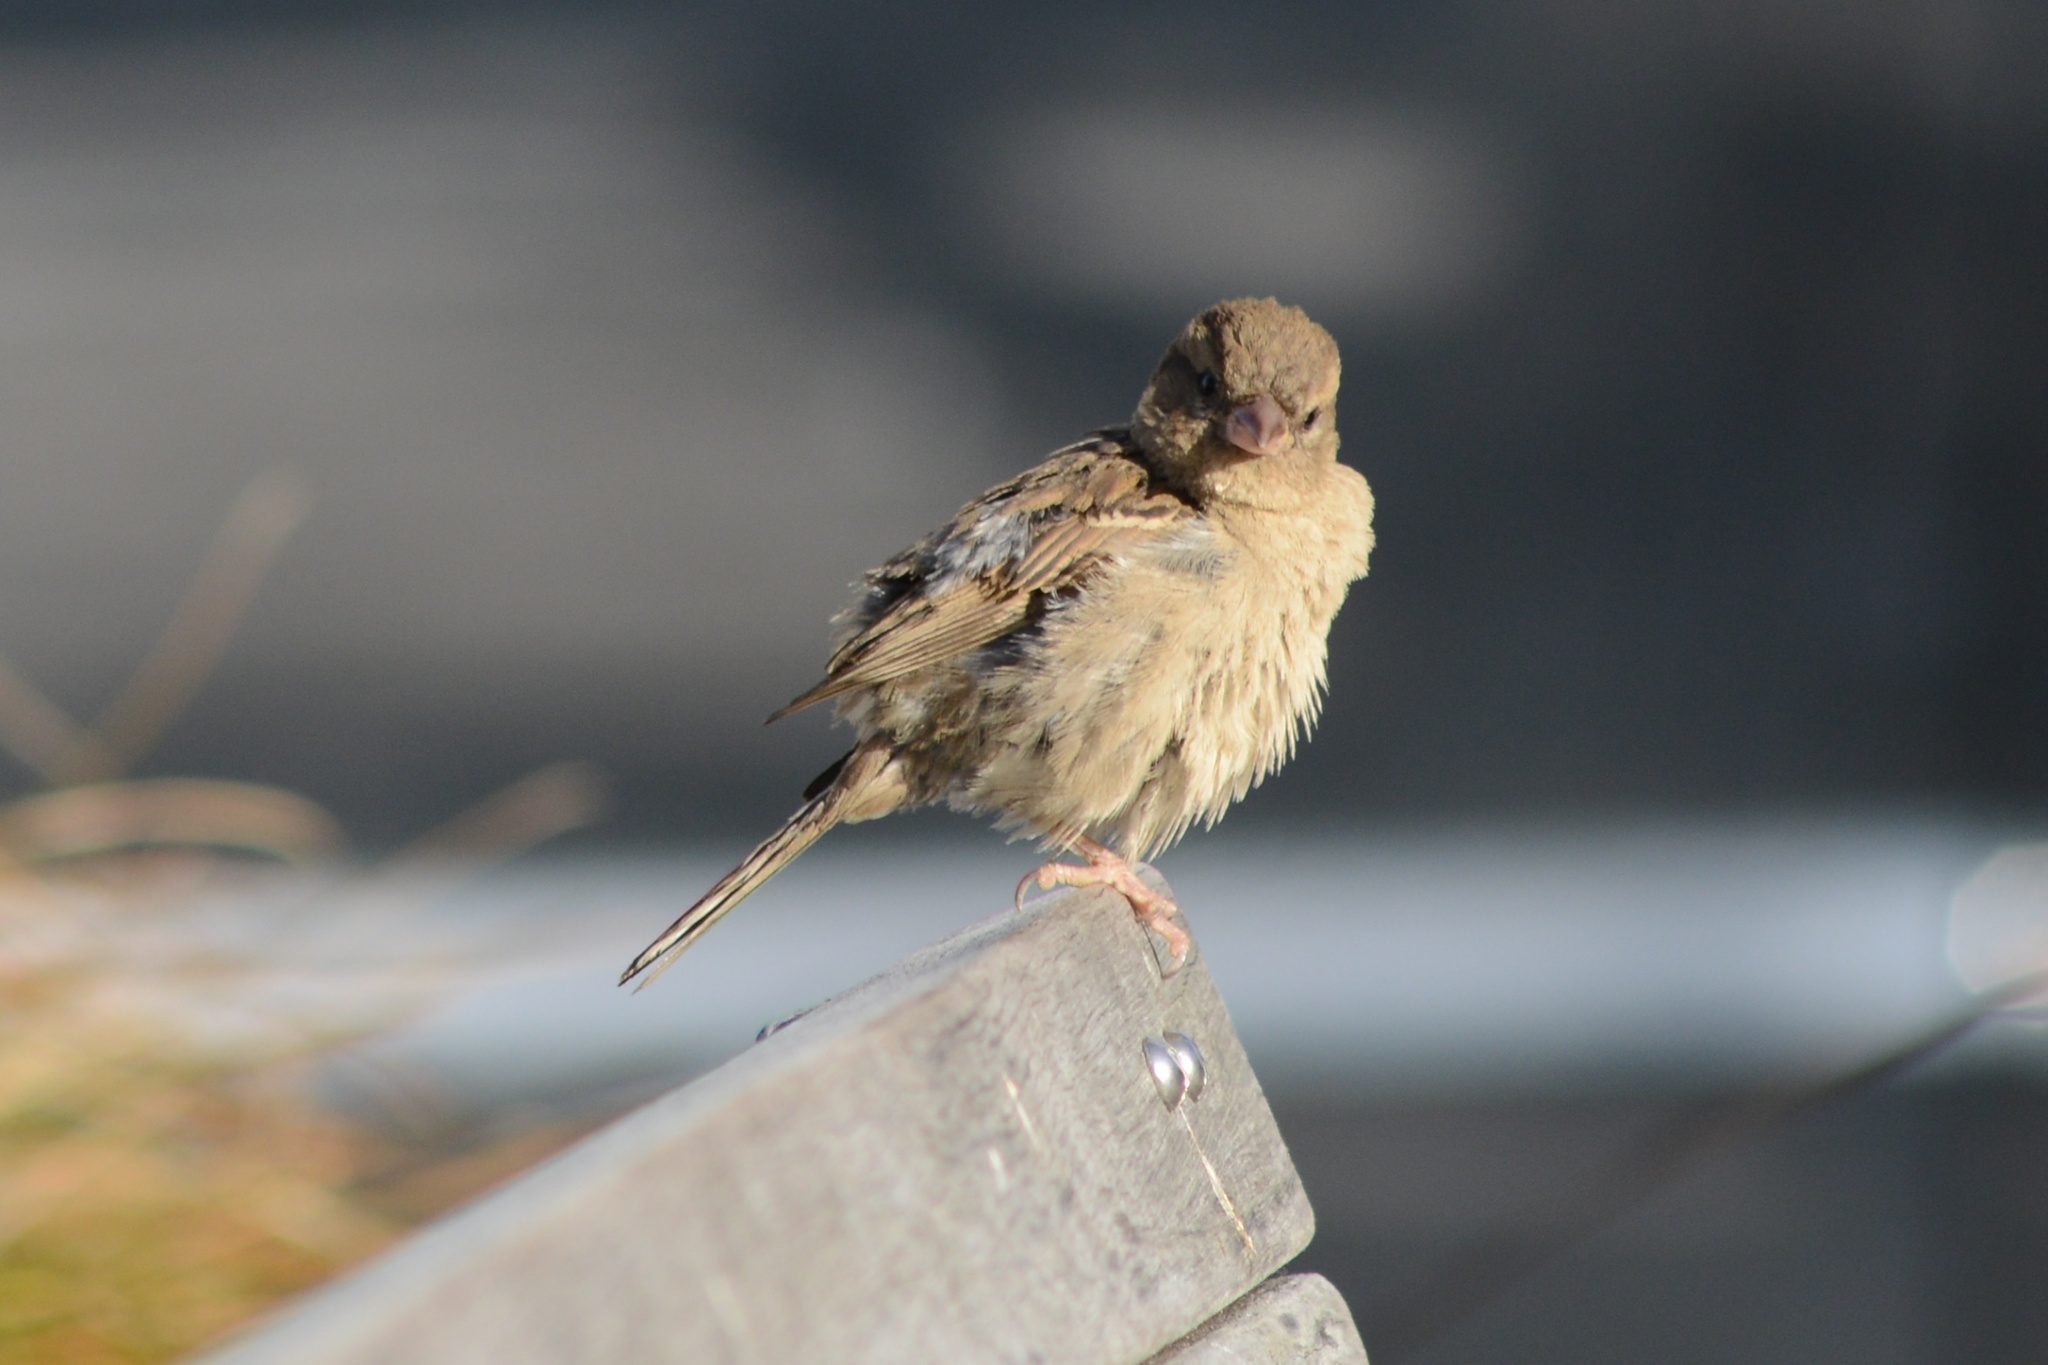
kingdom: Animalia
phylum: Chordata
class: Aves
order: Passeriformes
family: Passeridae
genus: Passer
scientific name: Passer domesticus
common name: House sparrow
